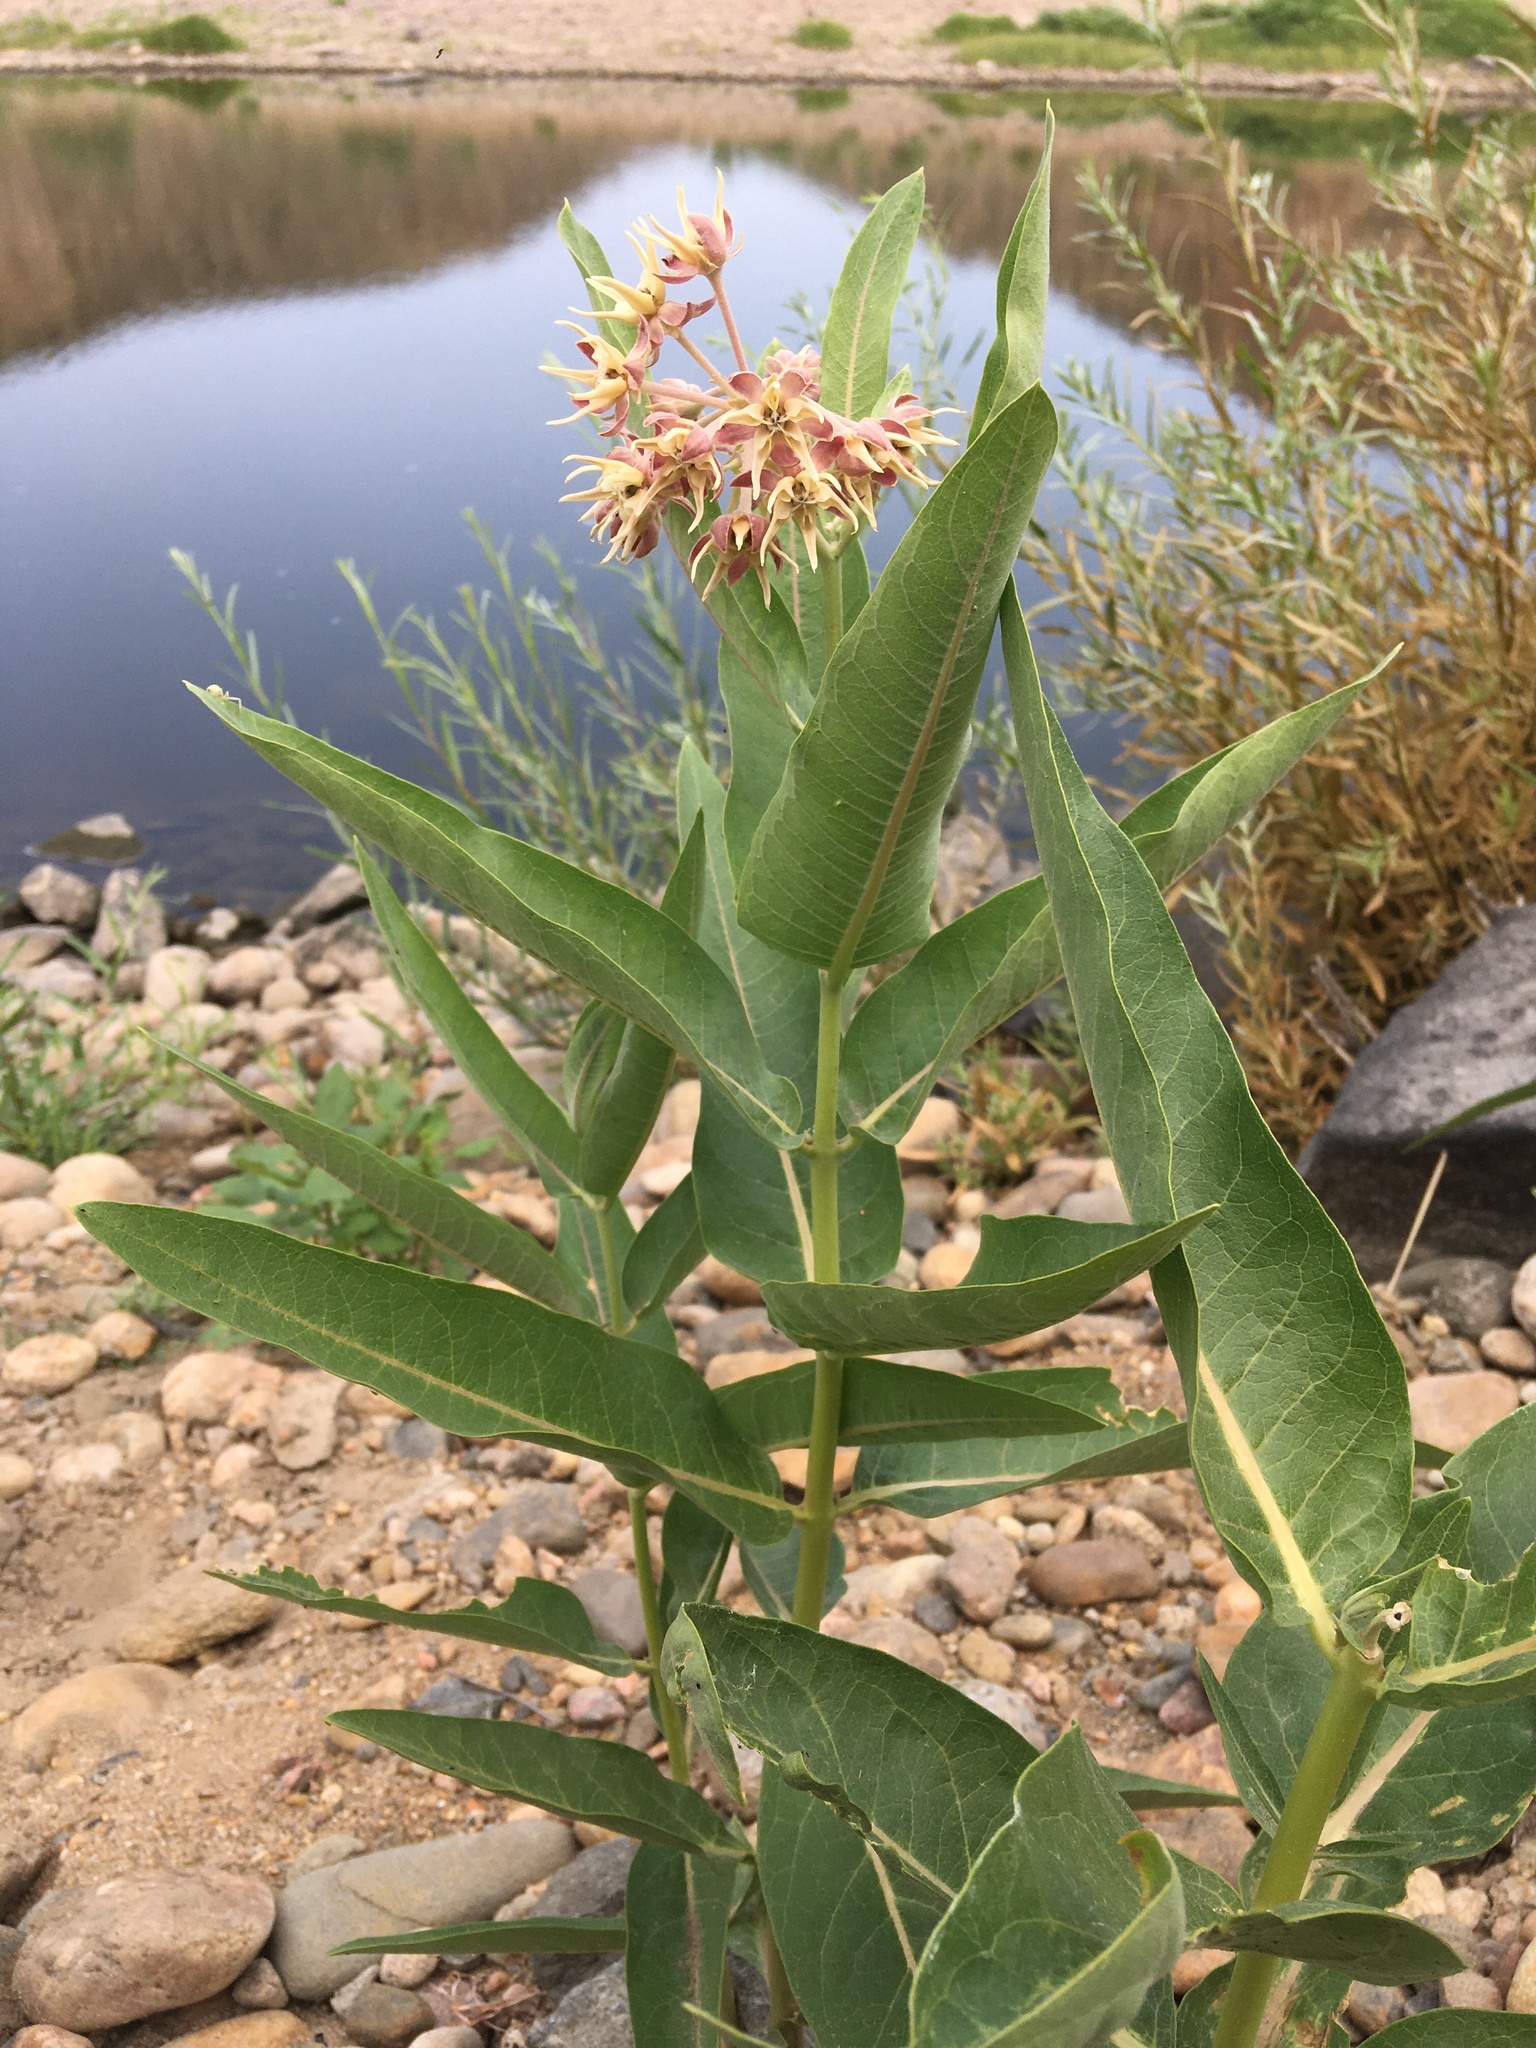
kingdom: Plantae
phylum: Tracheophyta
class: Magnoliopsida
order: Gentianales
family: Apocynaceae
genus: Asclepias
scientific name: Asclepias speciosa
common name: Showy milkweed
